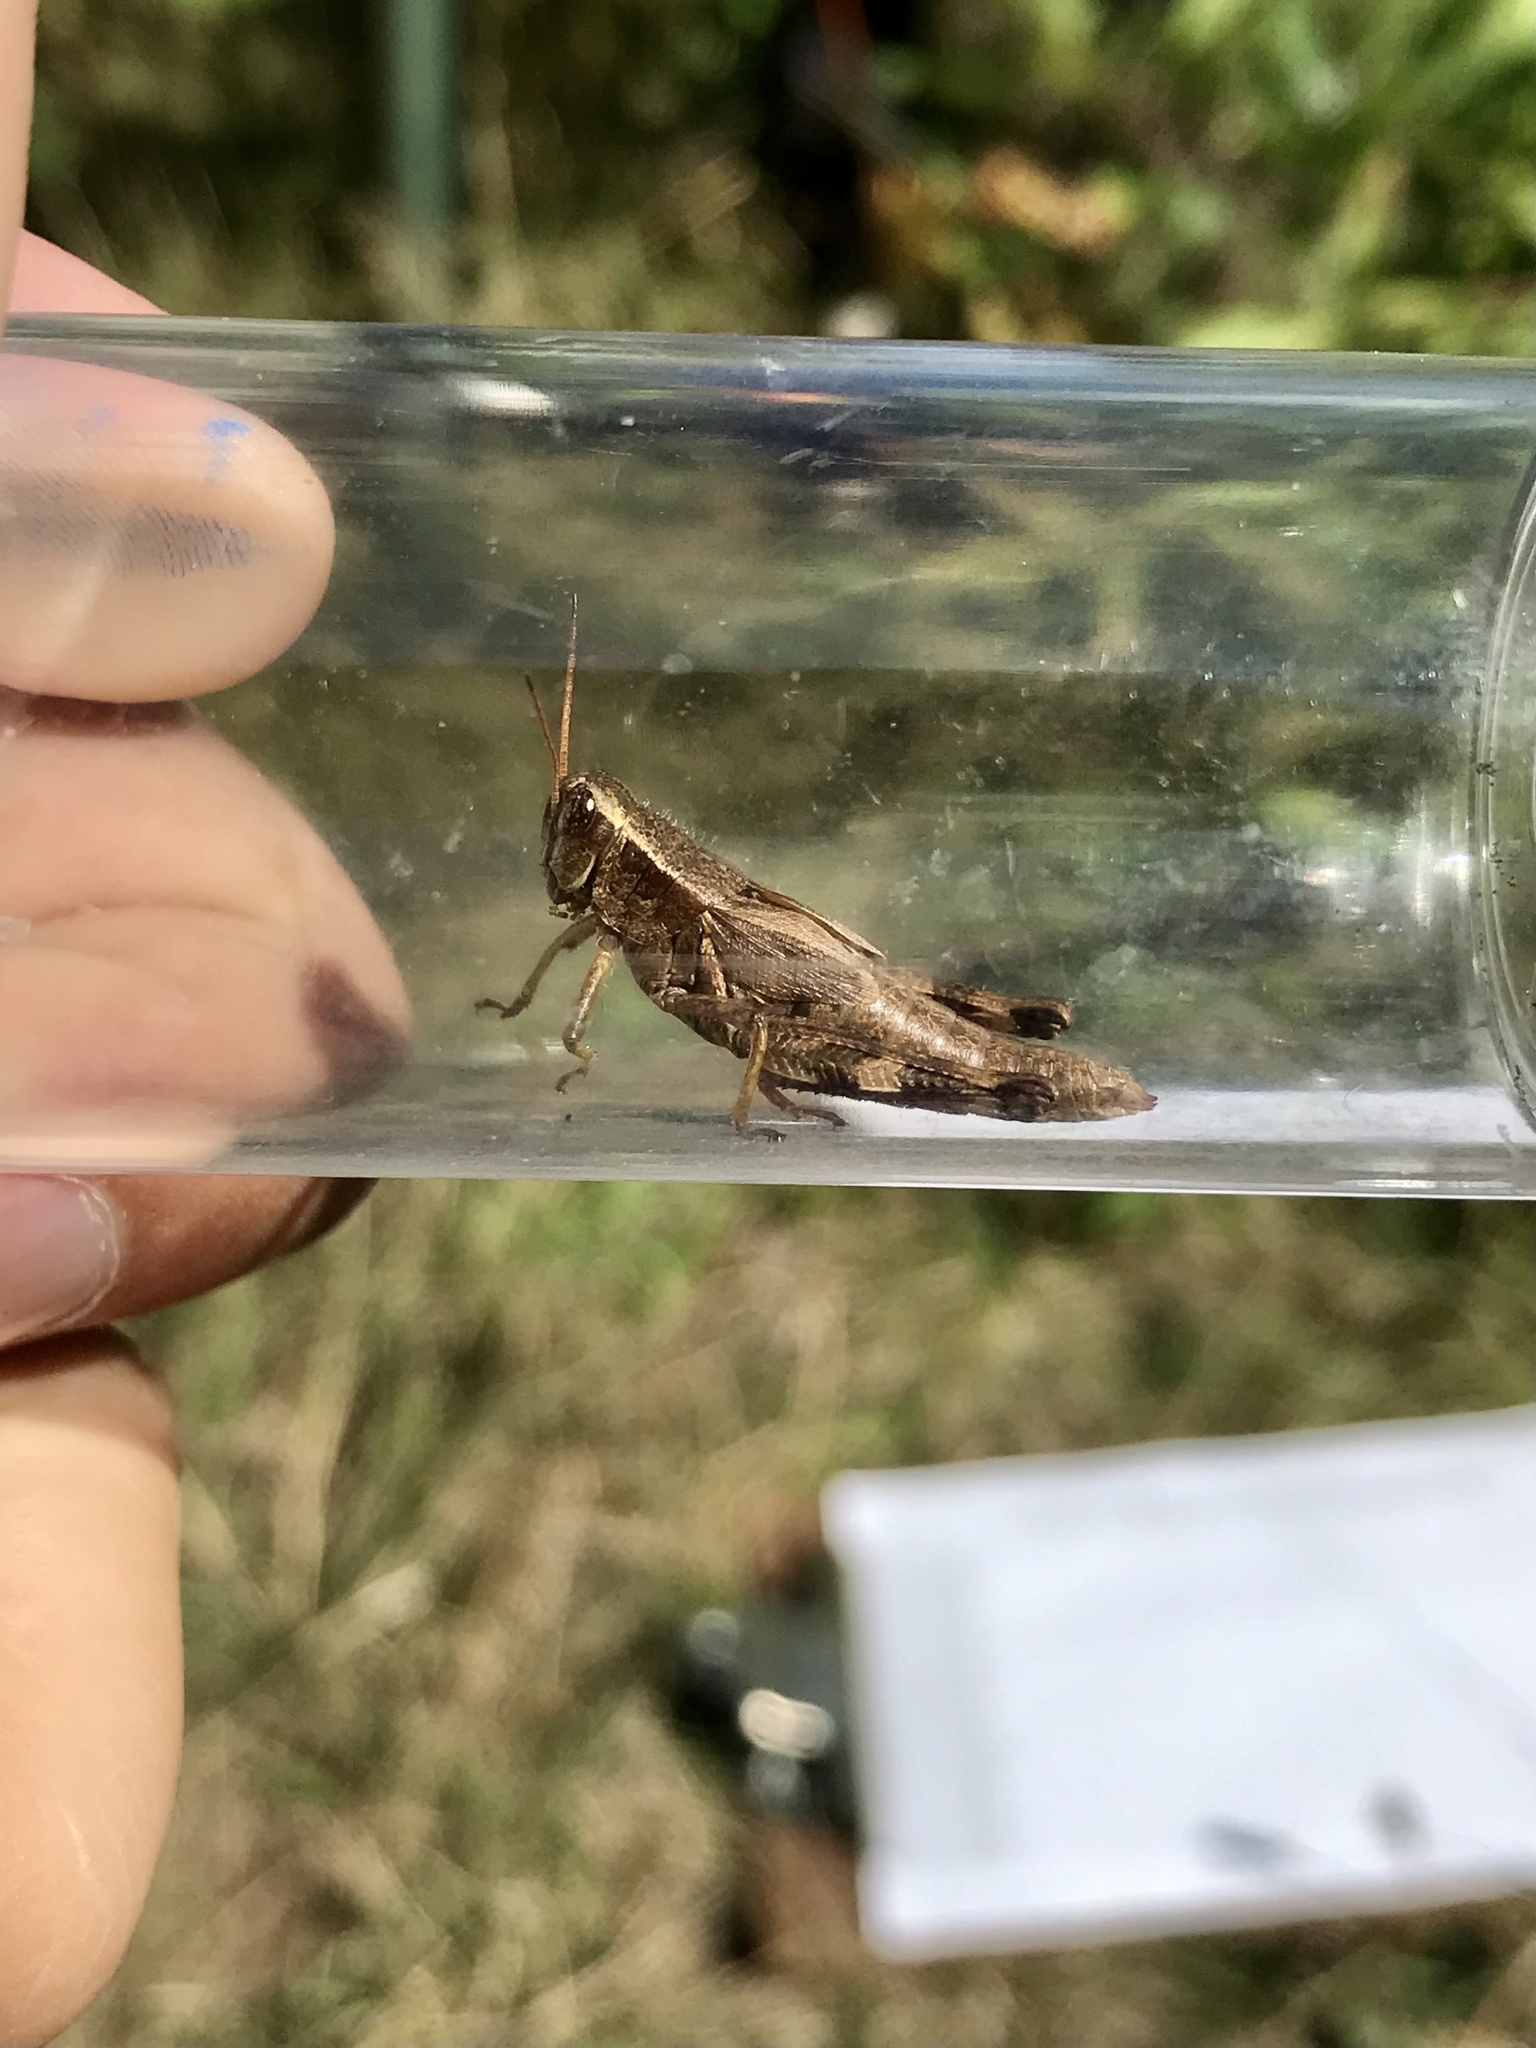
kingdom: Animalia
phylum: Arthropoda
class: Insecta
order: Orthoptera
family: Acrididae
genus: Melanoplus
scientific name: Melanoplus walshii
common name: Walsh's locust
